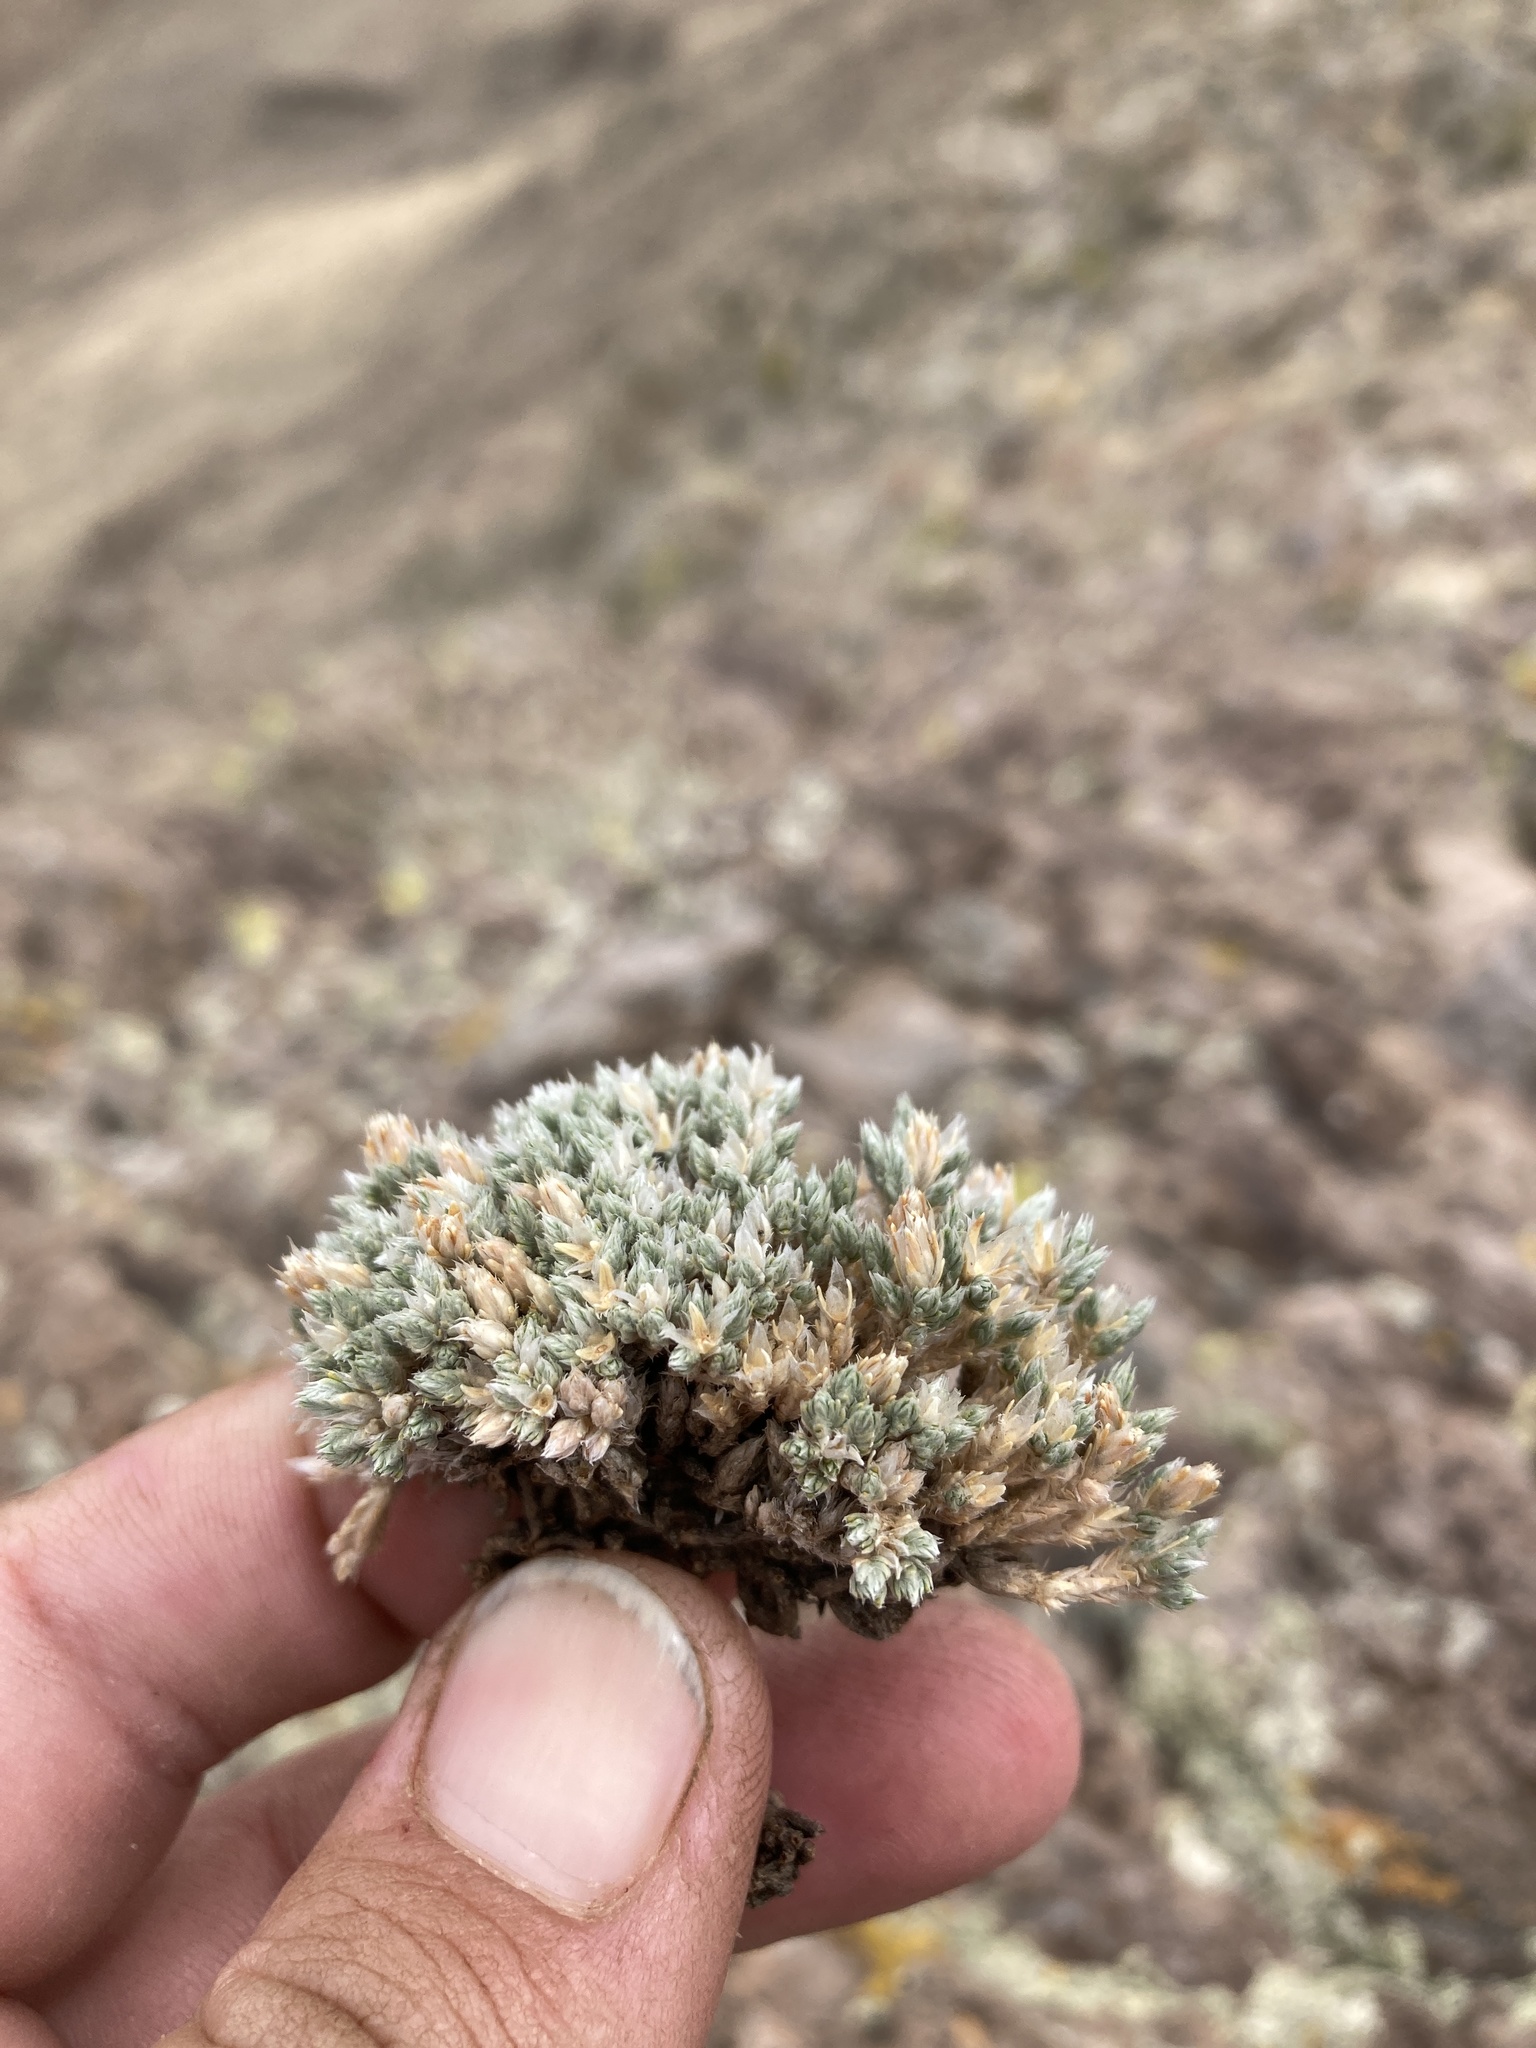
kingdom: Plantae
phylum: Tracheophyta
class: Magnoliopsida
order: Caryophyllales
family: Caryophyllaceae
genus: Paronychia
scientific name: Paronychia sessiliflora
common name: Creeping nailwort
